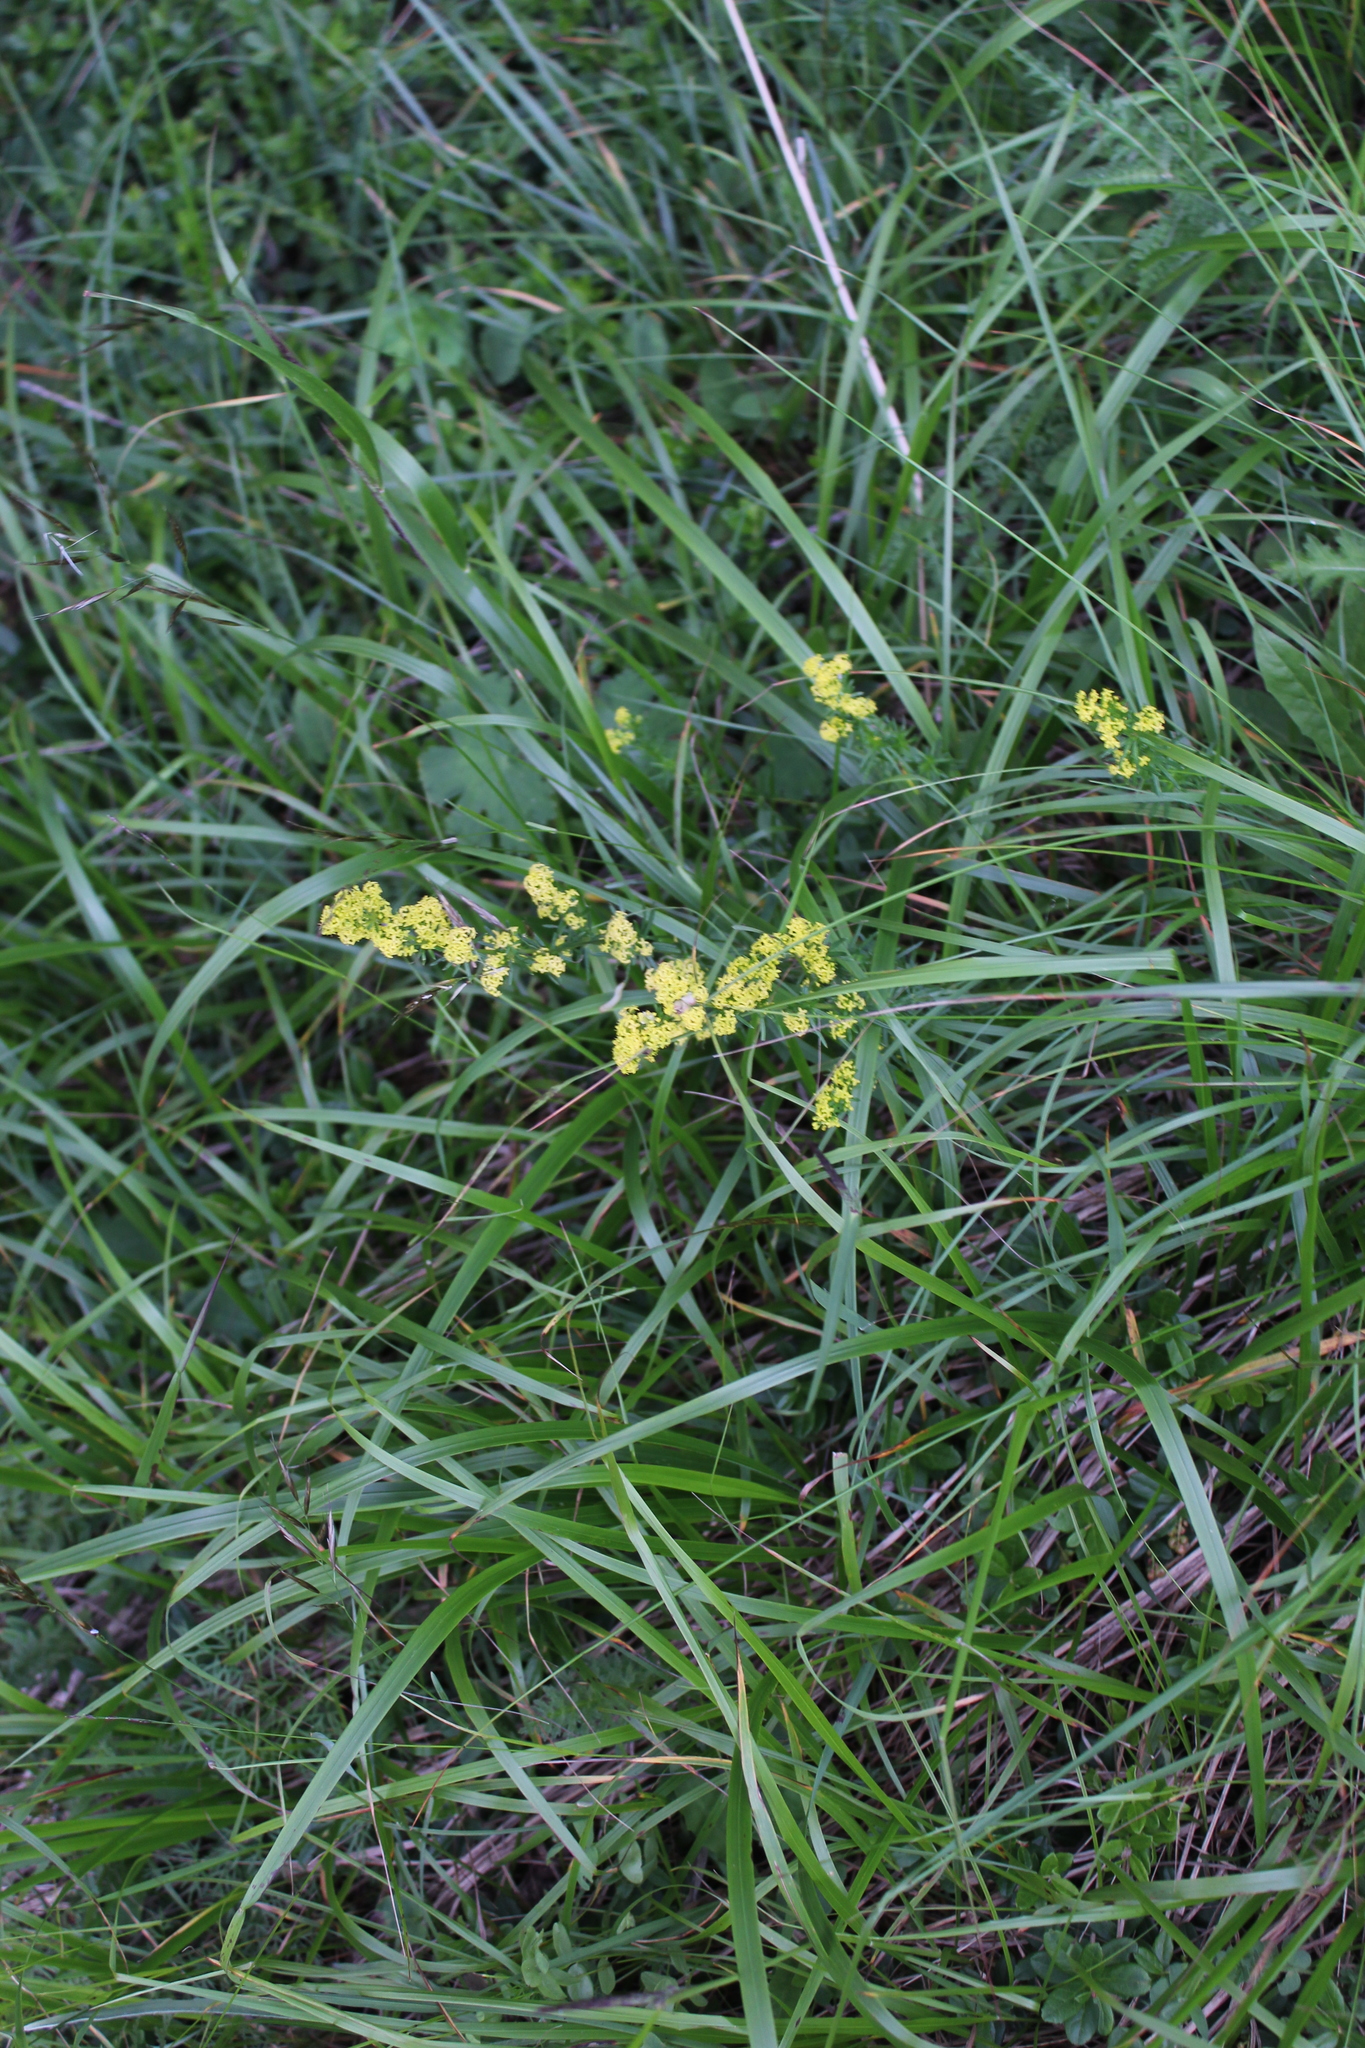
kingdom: Plantae
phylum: Tracheophyta
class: Magnoliopsida
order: Gentianales
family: Rubiaceae
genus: Galium
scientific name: Galium verum
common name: Lady's bedstraw
